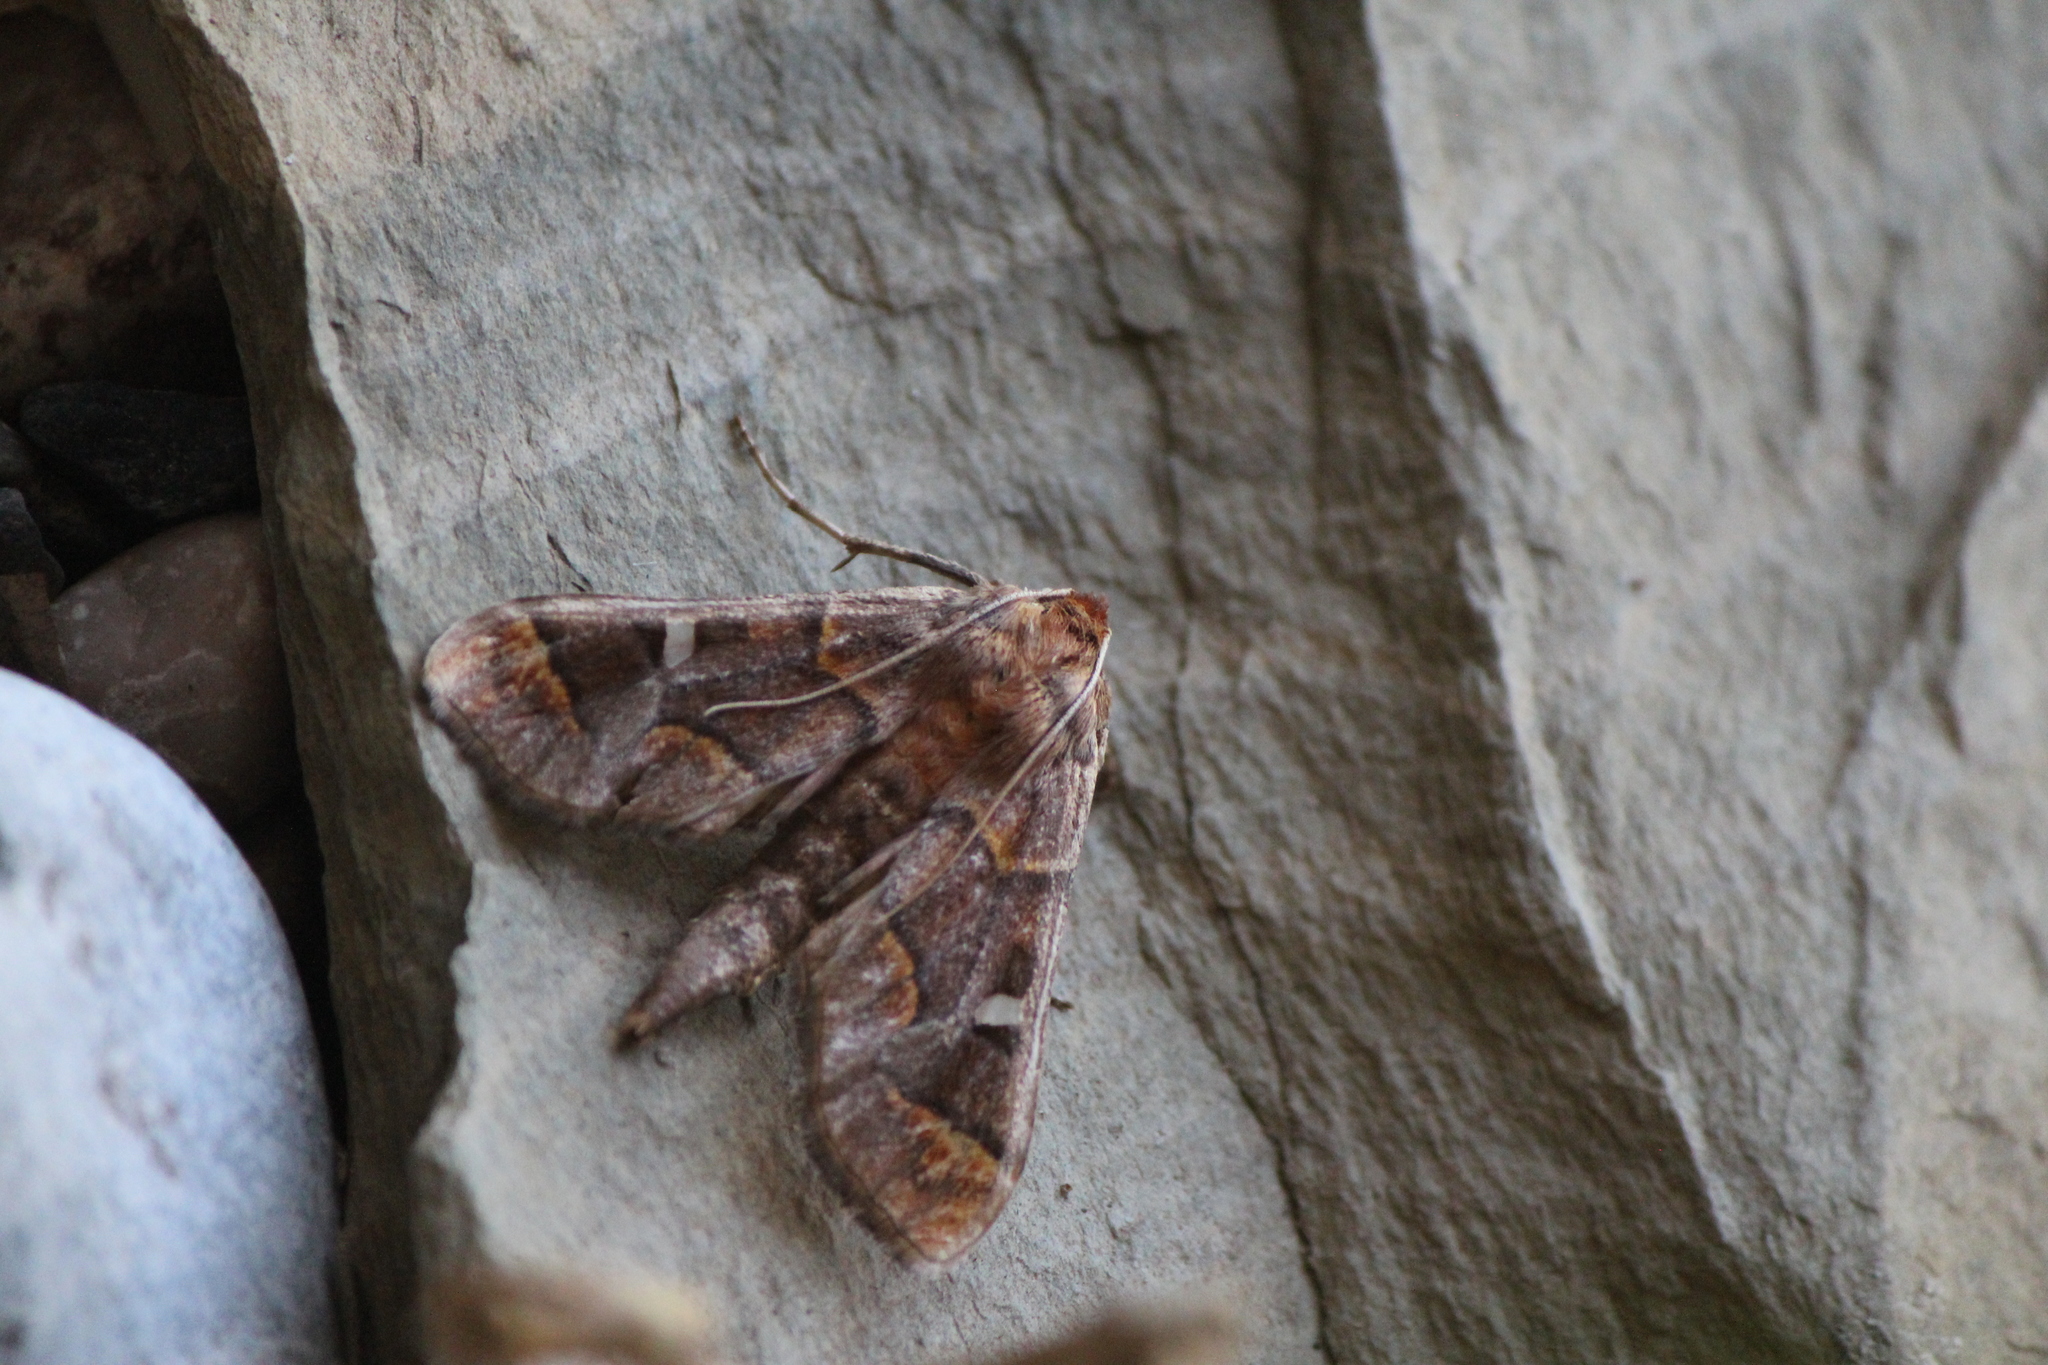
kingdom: Animalia
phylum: Arthropoda
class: Insecta
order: Lepidoptera
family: Crambidae
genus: Polygrammodes
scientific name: Polygrammodes cyamon
